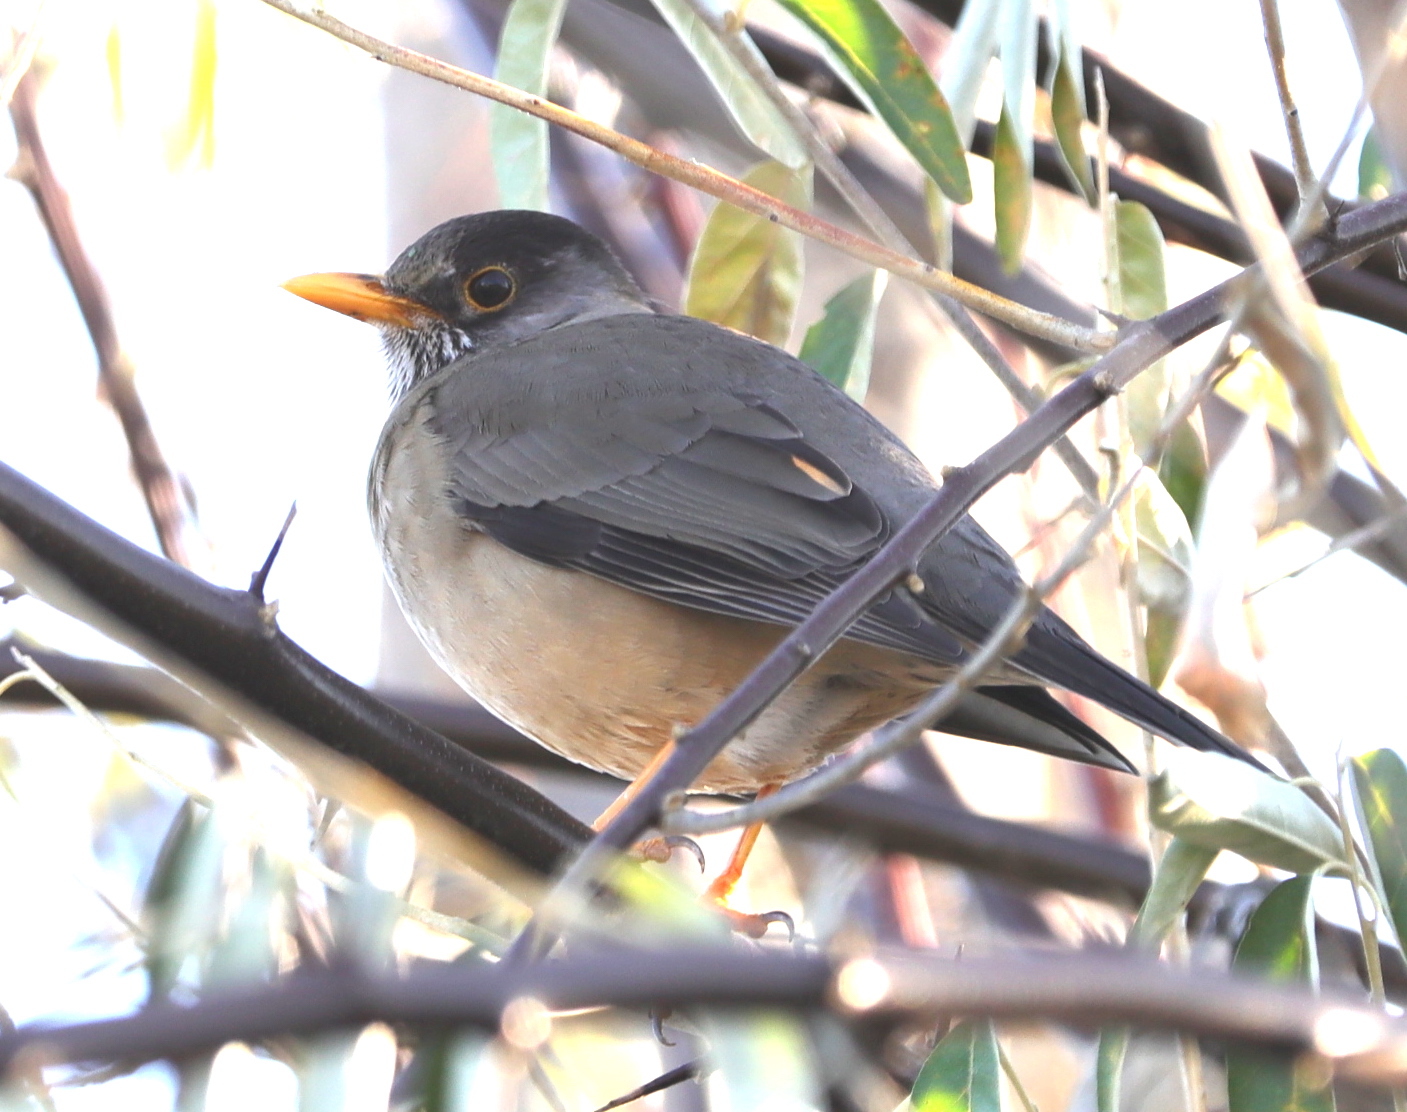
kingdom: Animalia
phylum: Chordata
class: Aves
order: Passeriformes
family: Turdidae
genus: Turdus
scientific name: Turdus falcklandii
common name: Austral thrush
